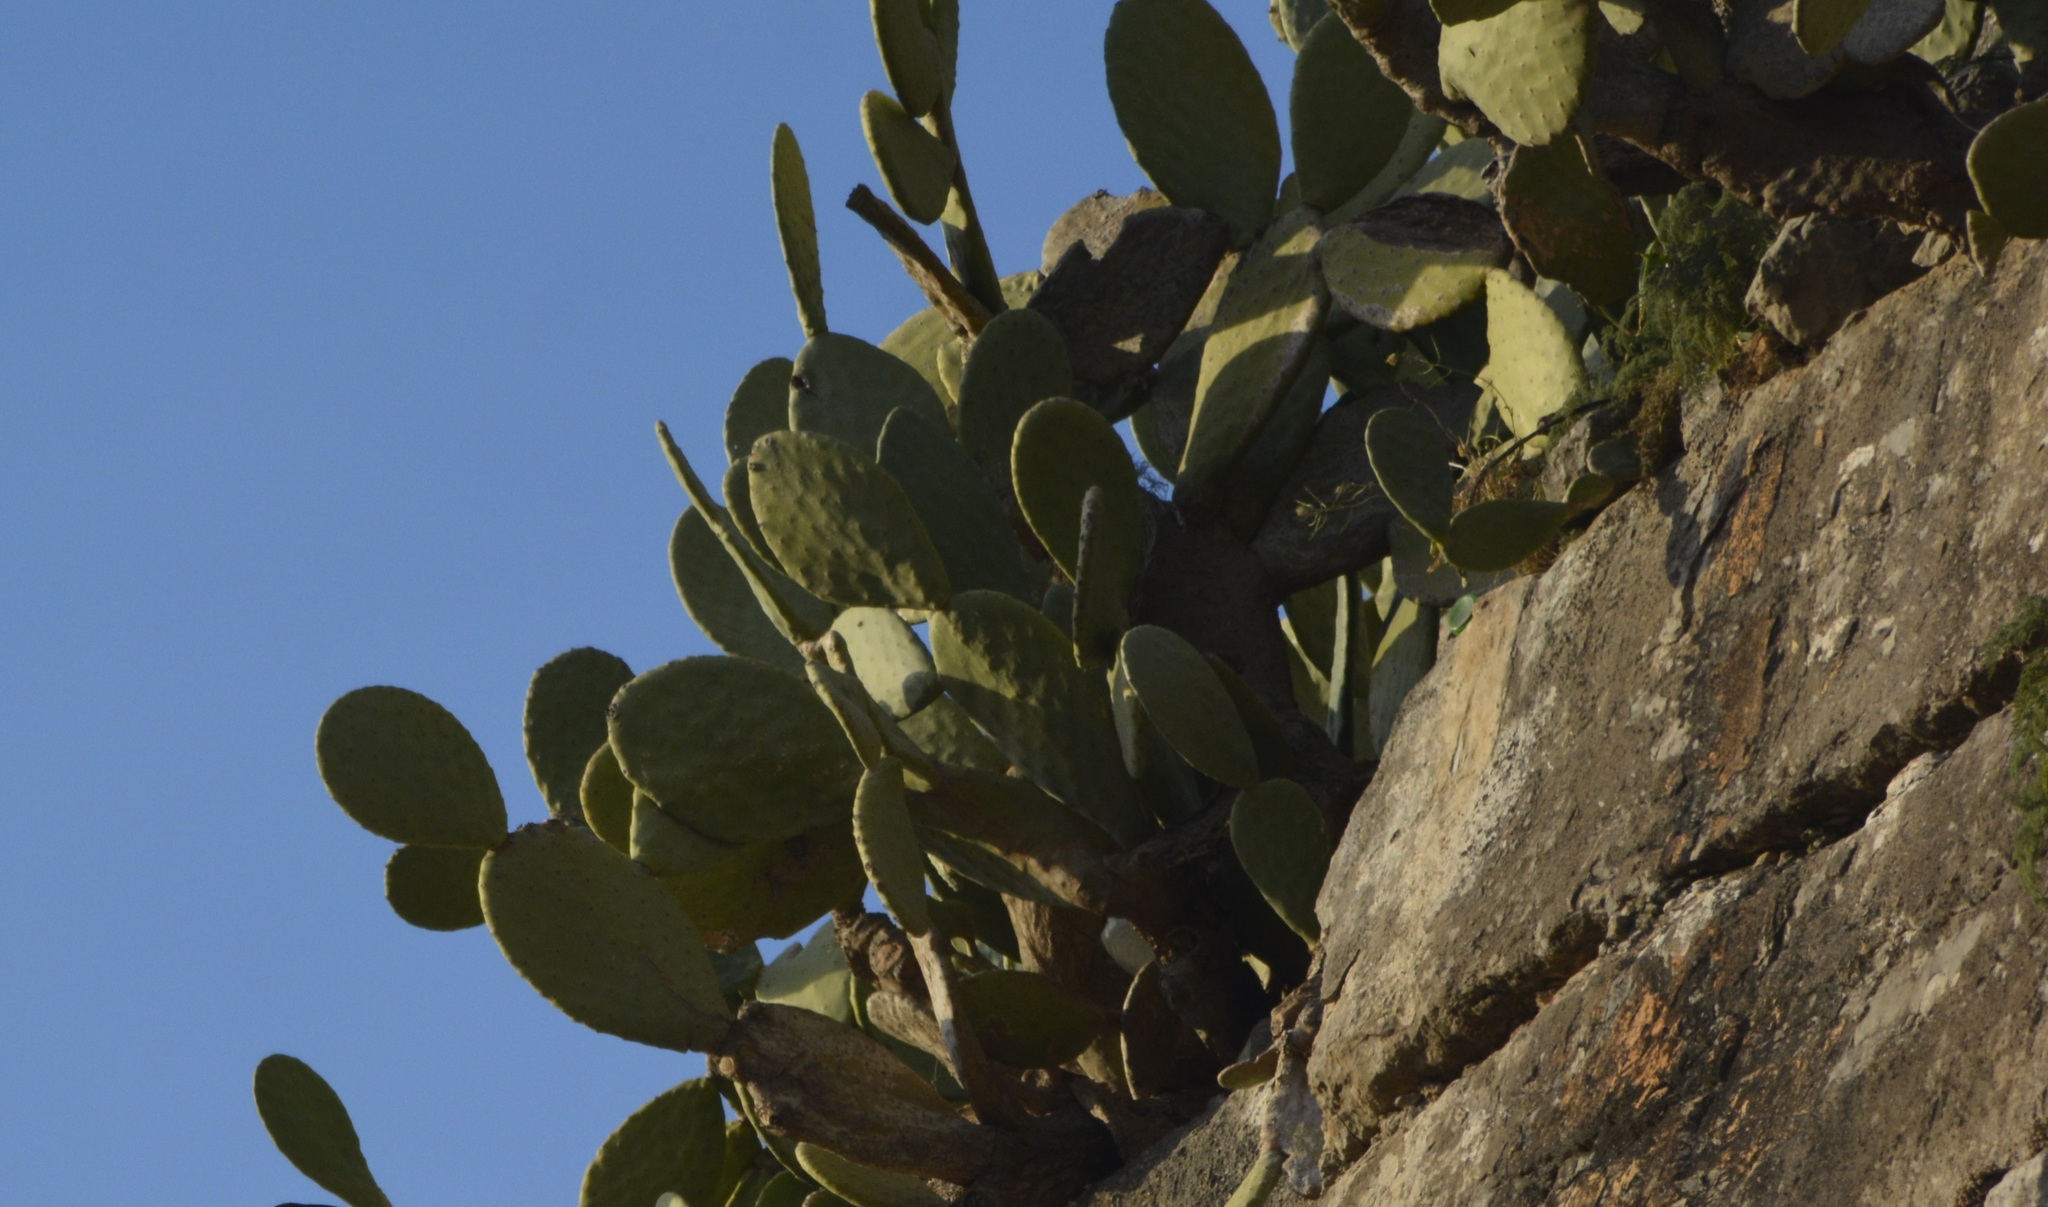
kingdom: Plantae
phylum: Tracheophyta
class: Magnoliopsida
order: Caryophyllales
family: Cactaceae
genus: Opuntia
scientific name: Opuntia ficus-indica
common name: Barbary fig
